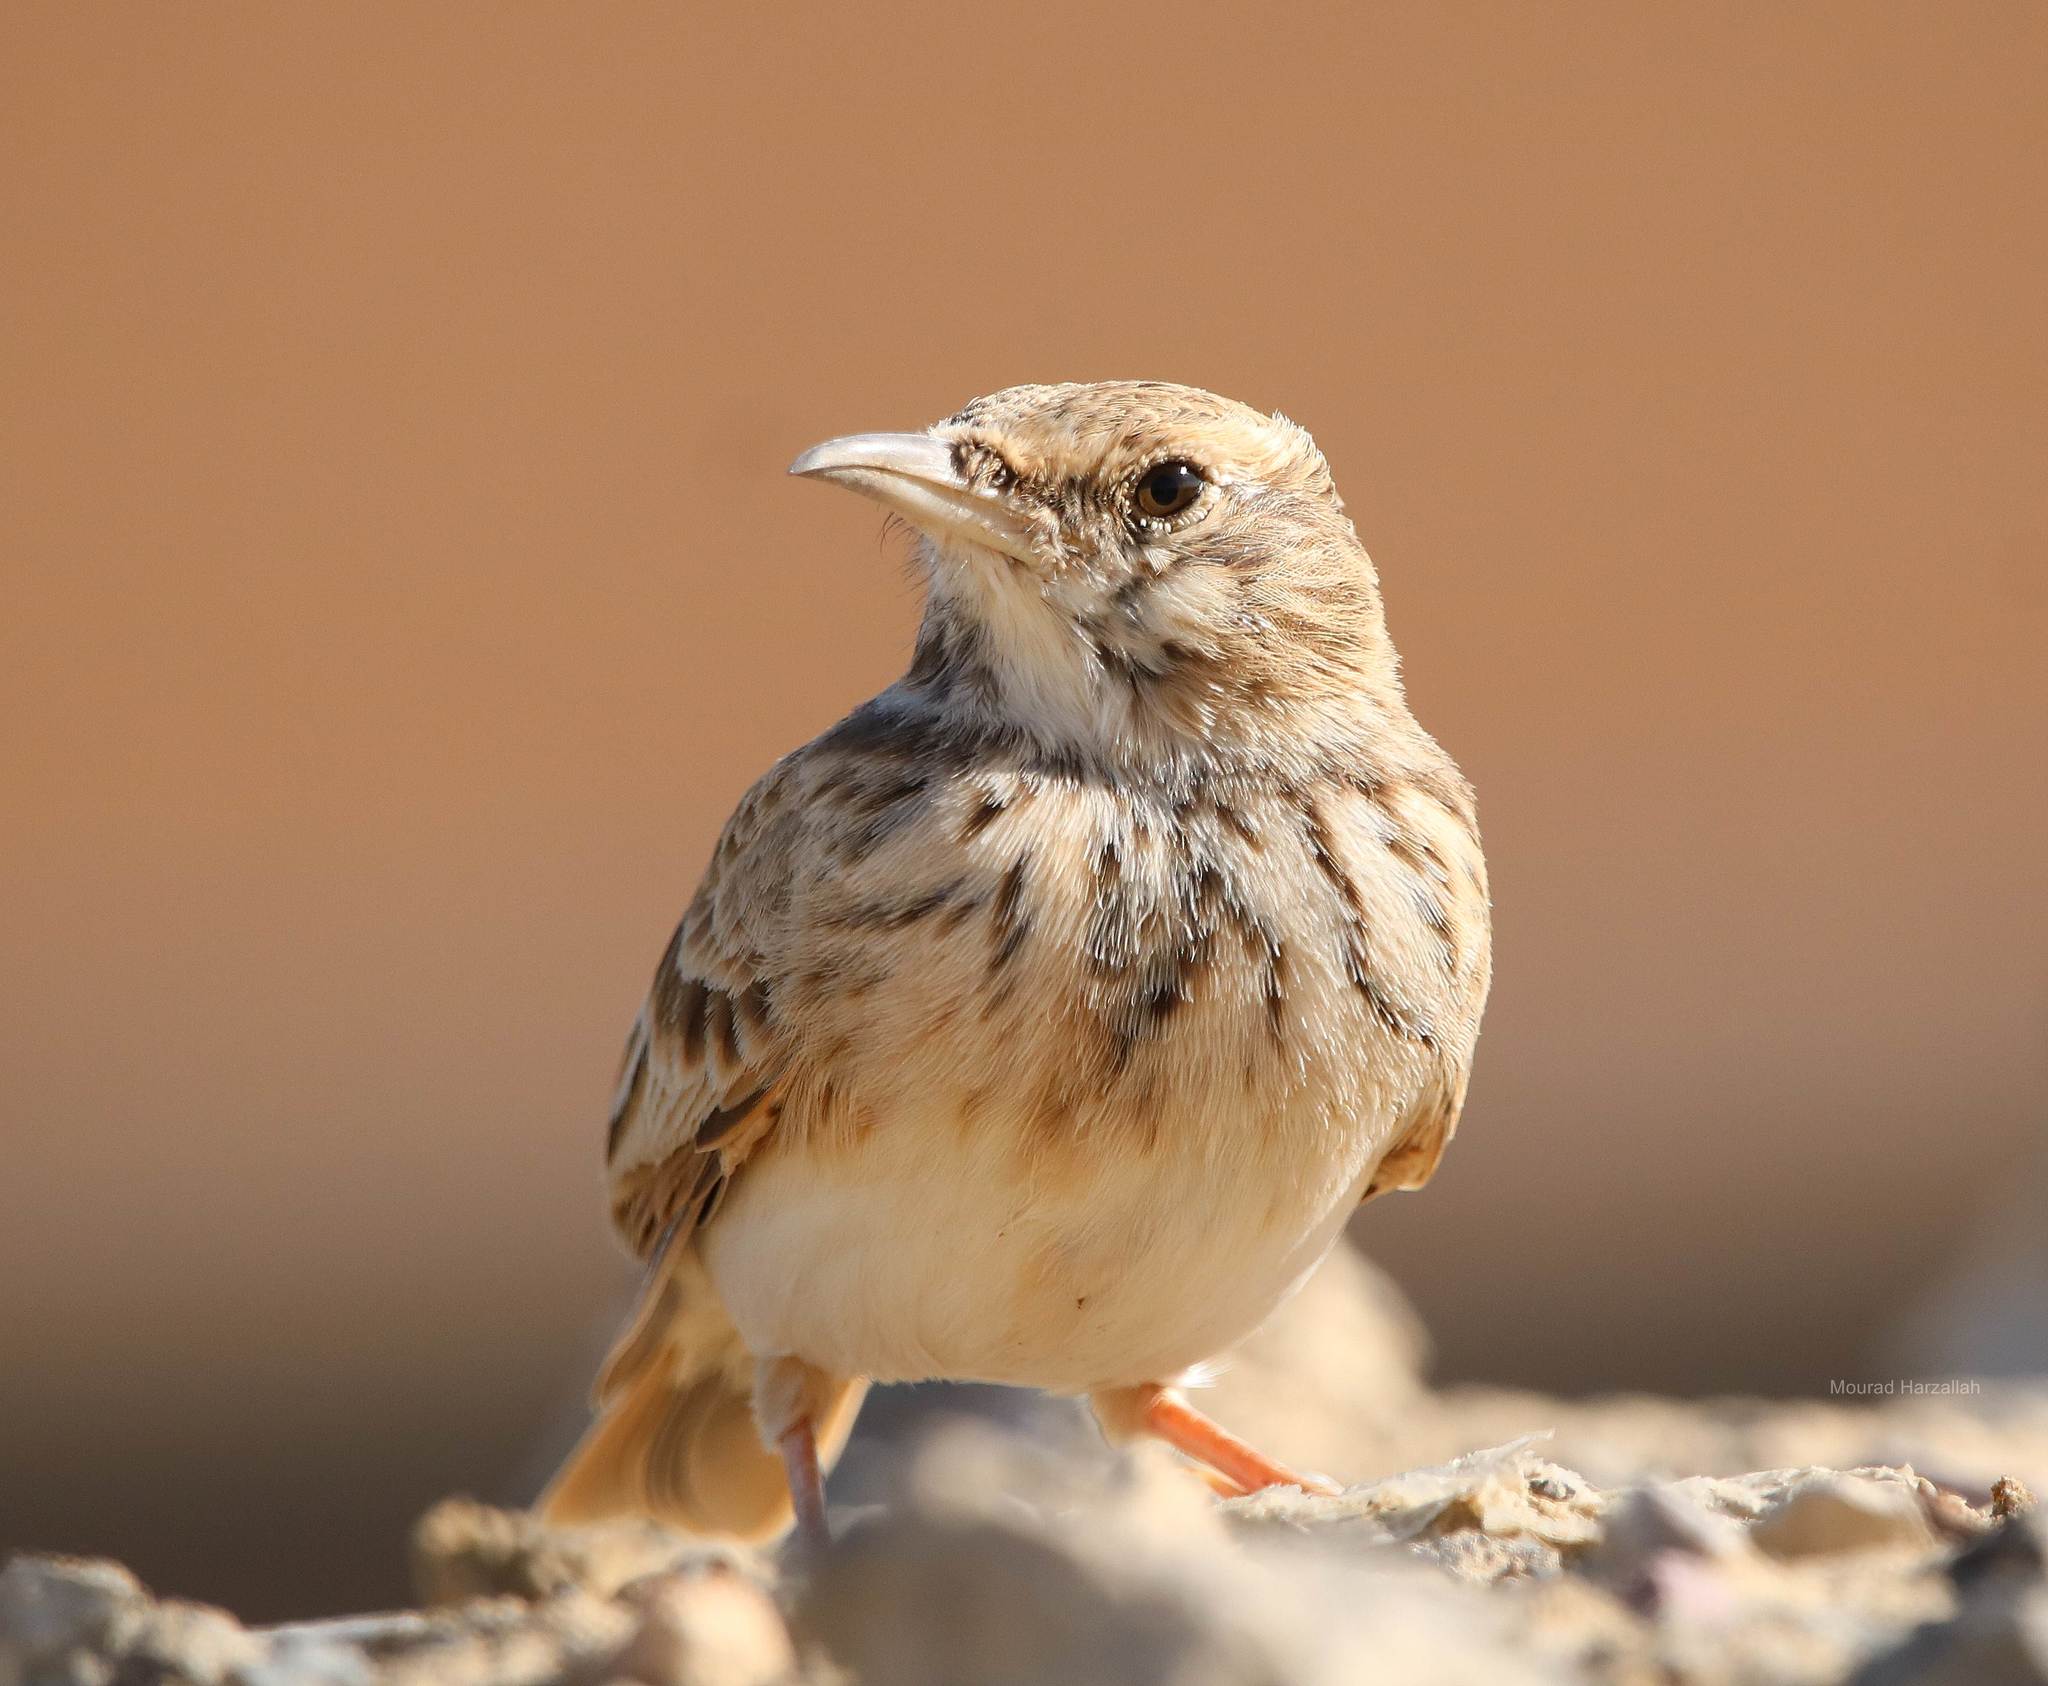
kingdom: Animalia
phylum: Chordata
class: Aves
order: Passeriformes
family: Alaudidae
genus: Galerida
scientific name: Galerida cristata
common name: Crested lark
